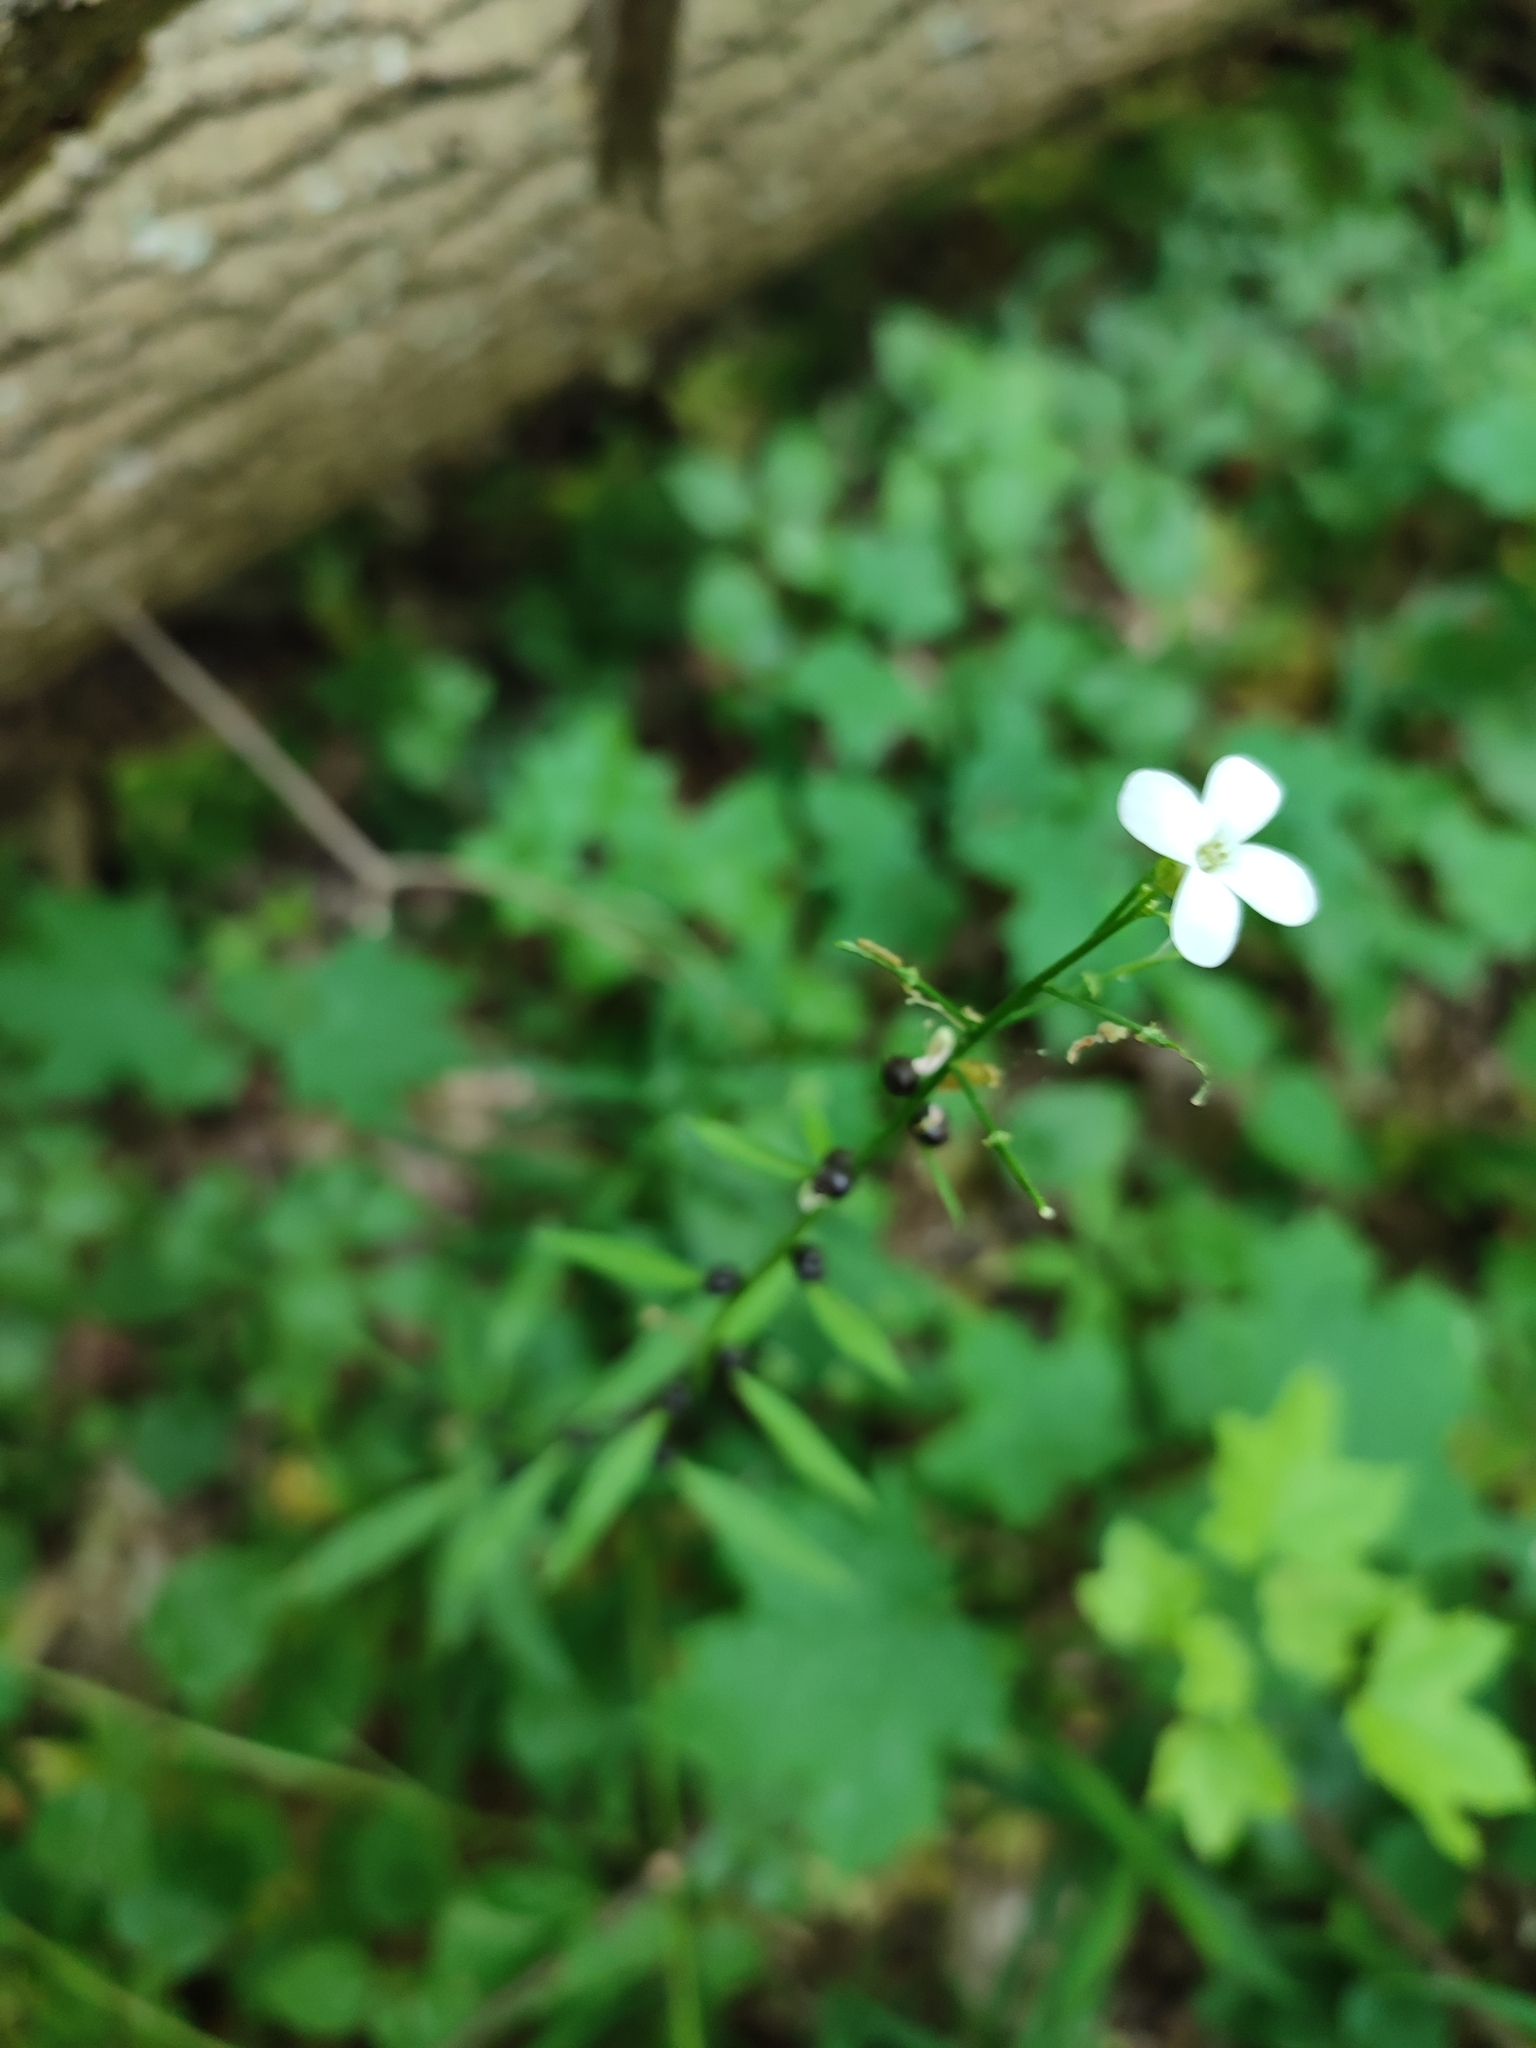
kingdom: Plantae
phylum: Tracheophyta
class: Magnoliopsida
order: Brassicales
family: Brassicaceae
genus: Cardamine
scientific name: Cardamine bulbifera
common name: Coralroot bittercress
